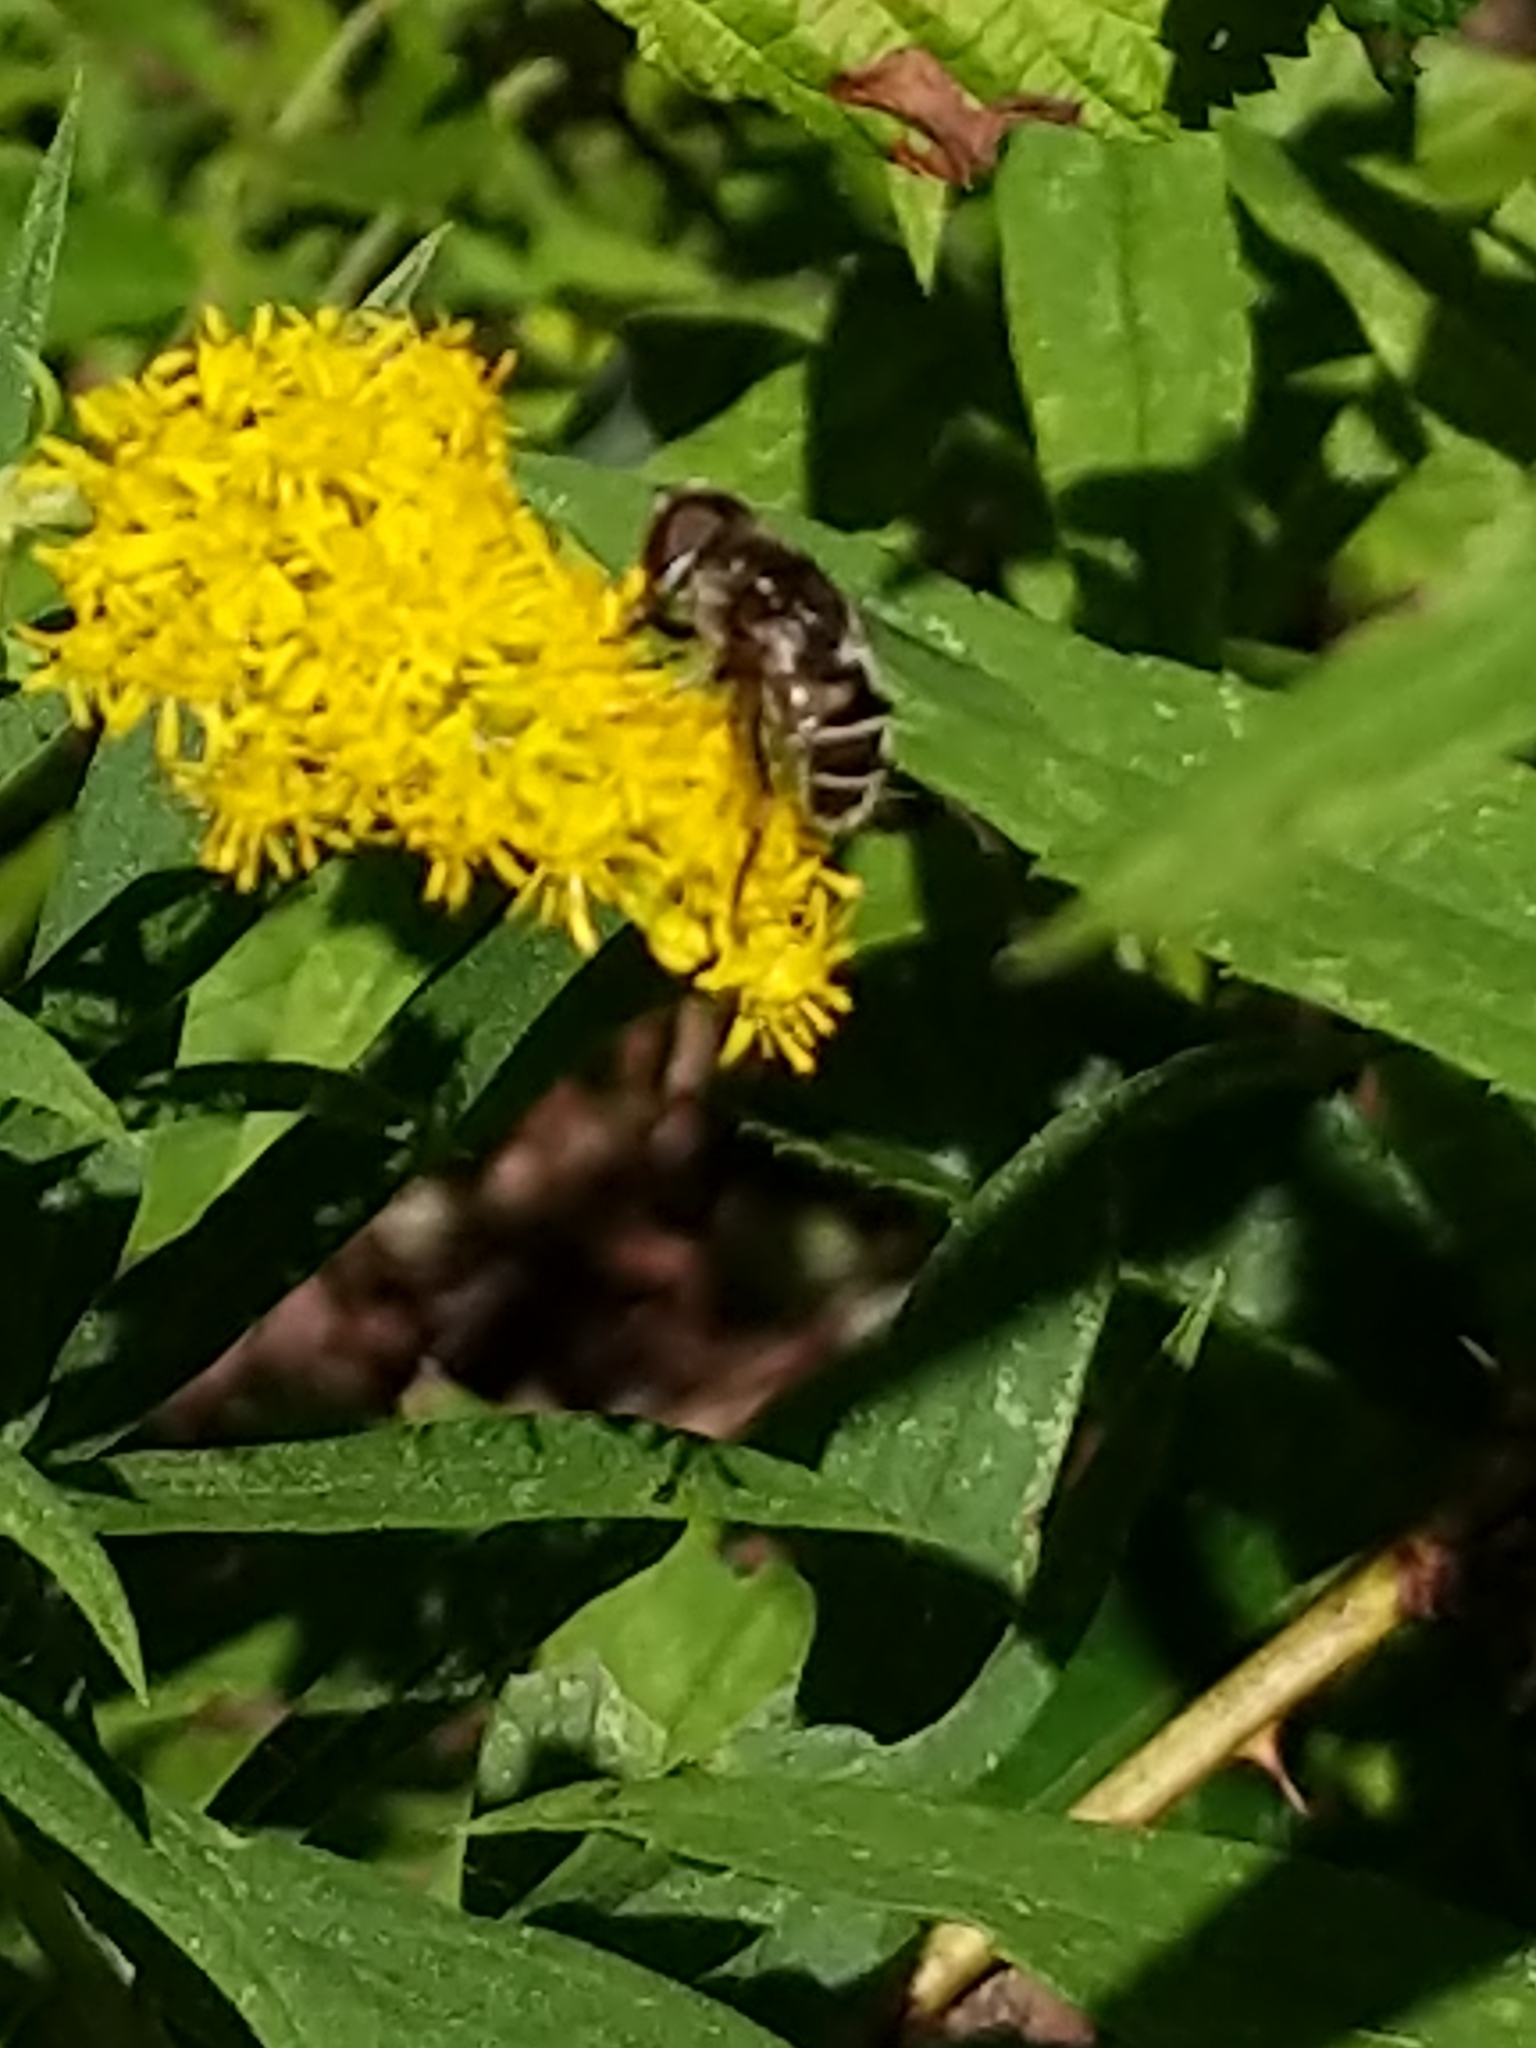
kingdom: Animalia
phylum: Arthropoda
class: Insecta
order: Diptera
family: Syrphidae
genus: Eristalis
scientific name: Eristalis dimidiata
